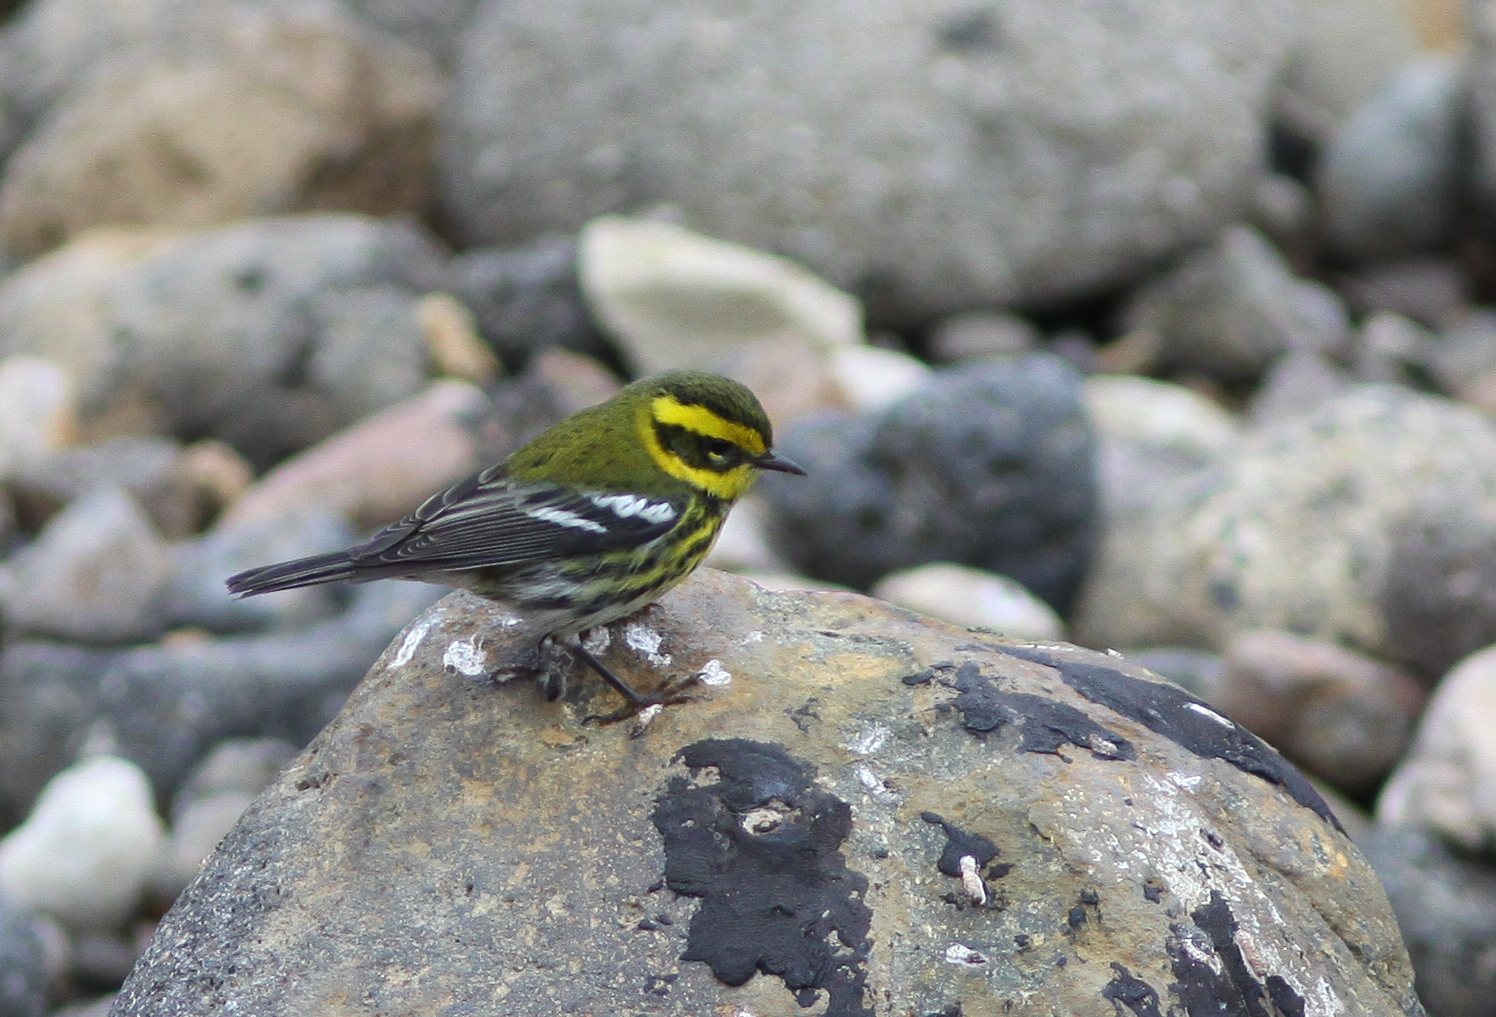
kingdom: Animalia
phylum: Chordata
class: Aves
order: Passeriformes
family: Parulidae
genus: Setophaga
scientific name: Setophaga townsendi
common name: Townsend's warbler
